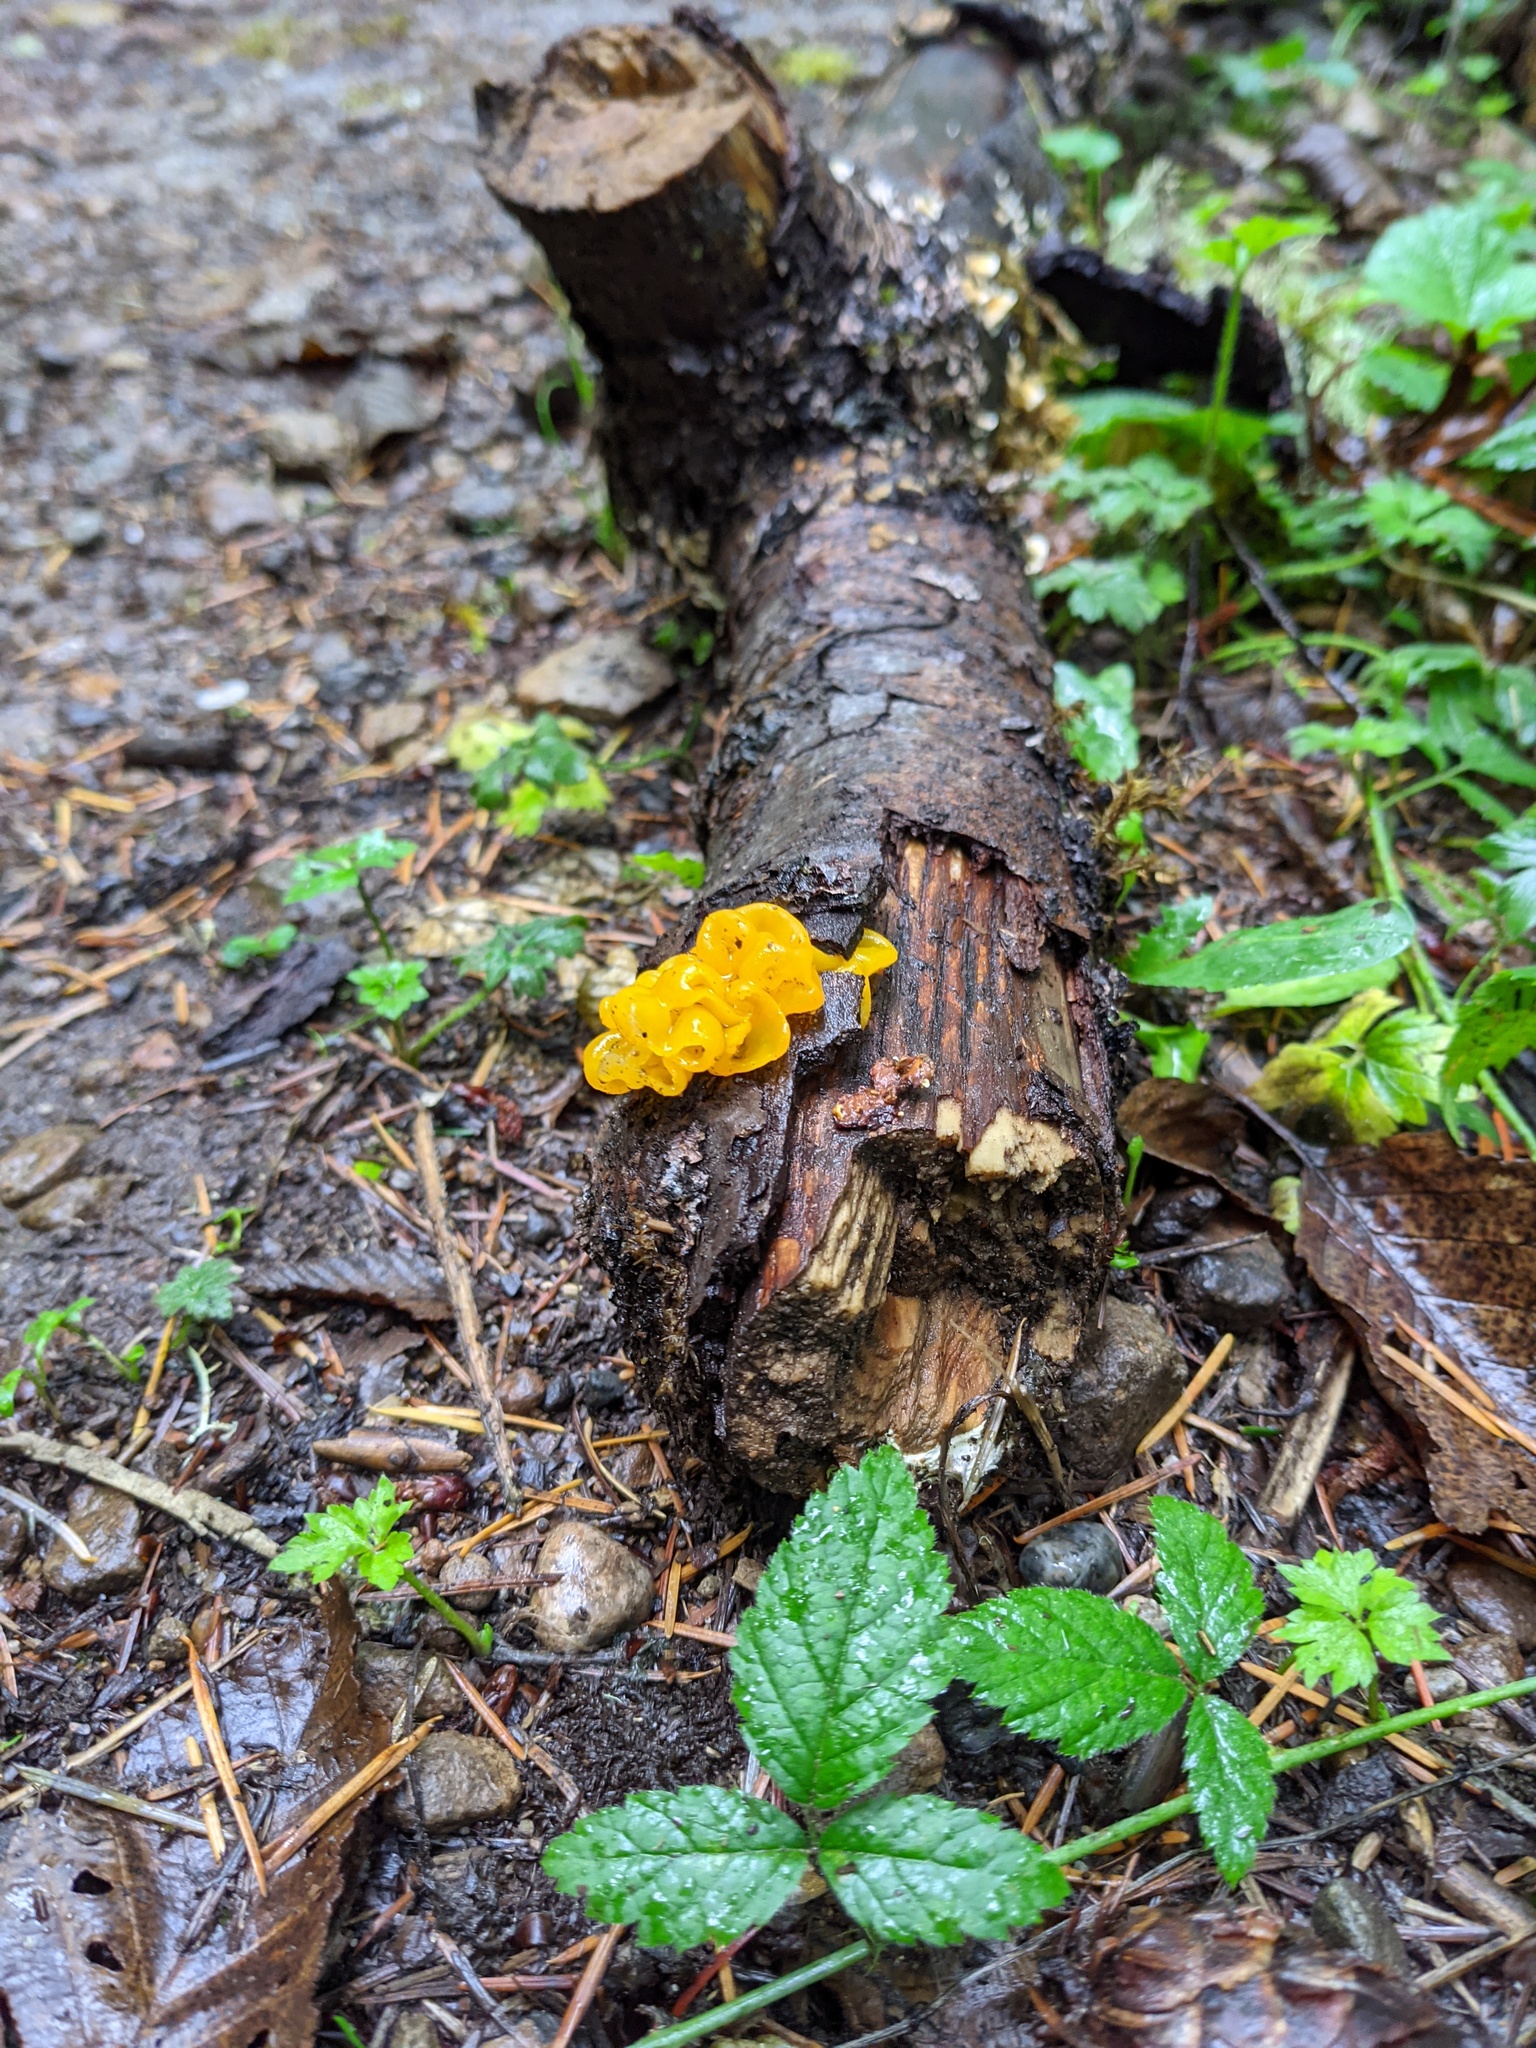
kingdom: Fungi
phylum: Basidiomycota
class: Tremellomycetes
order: Tremellales
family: Tremellaceae
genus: Tremella
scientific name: Tremella mesenterica
